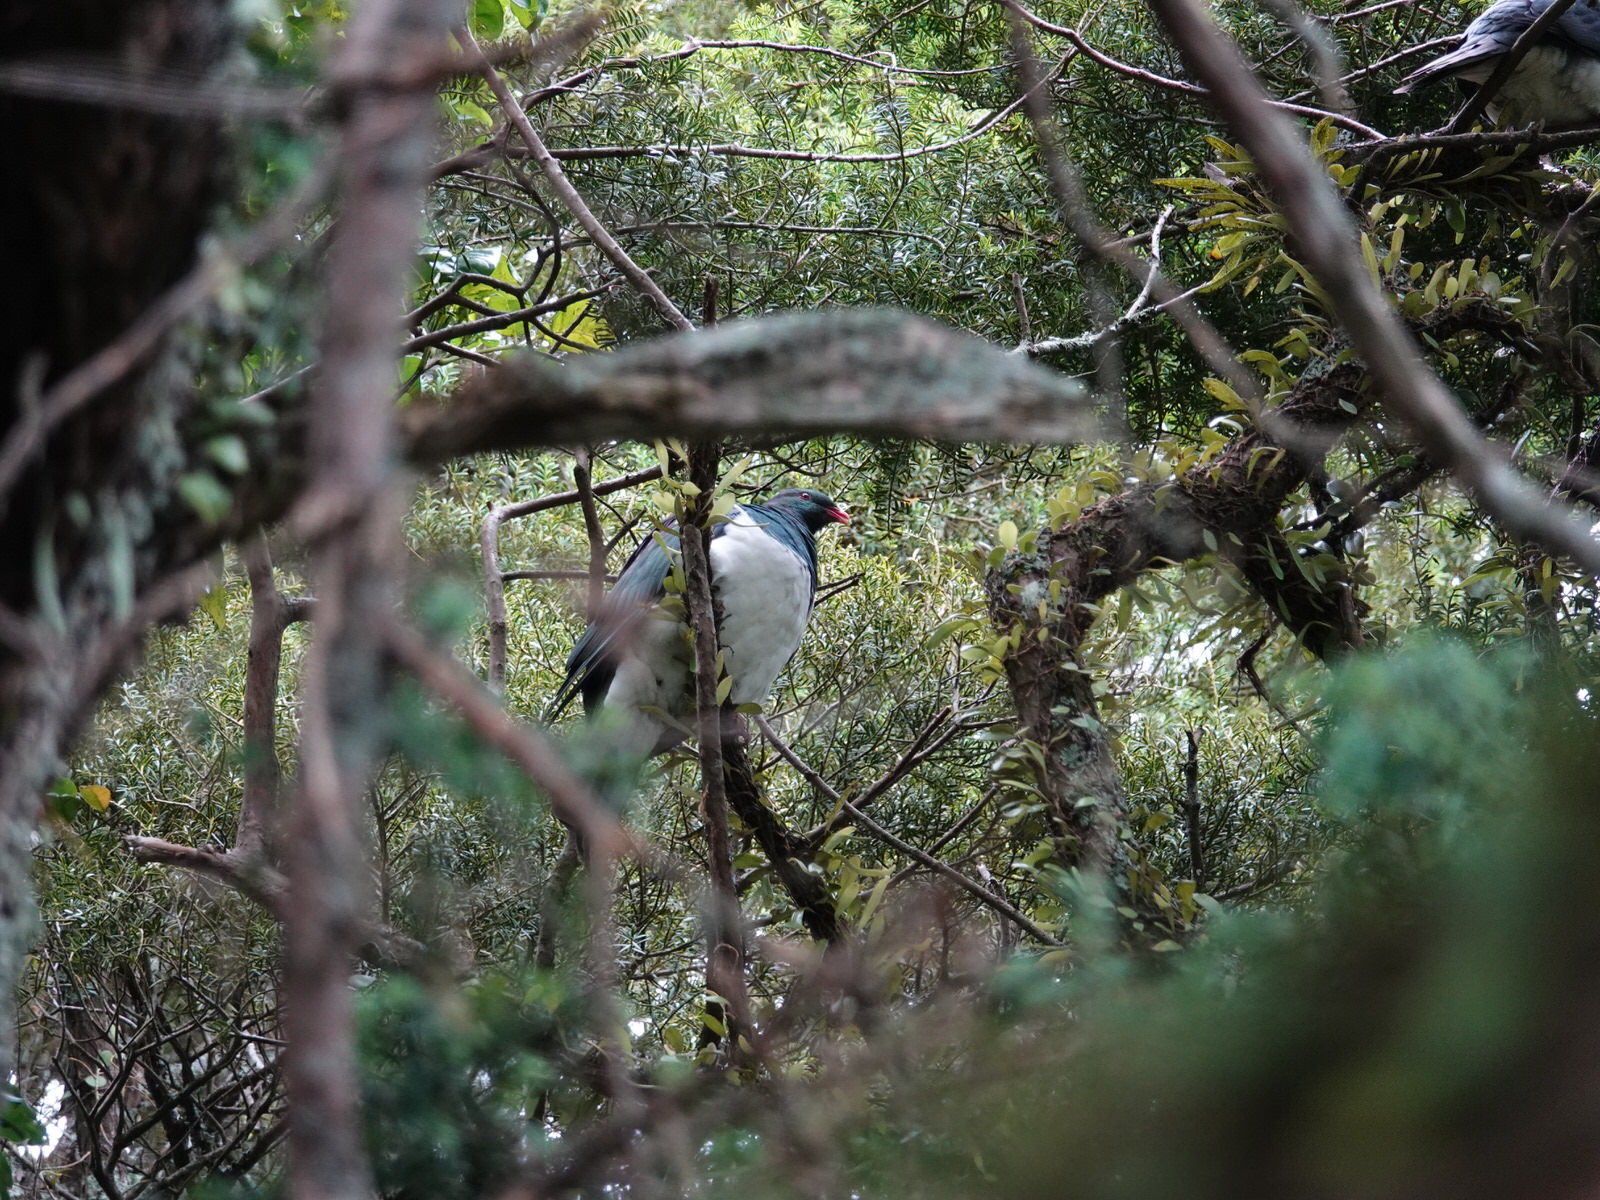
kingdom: Animalia
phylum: Chordata
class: Aves
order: Columbiformes
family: Columbidae
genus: Hemiphaga
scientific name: Hemiphaga novaeseelandiae
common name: New zealand pigeon
